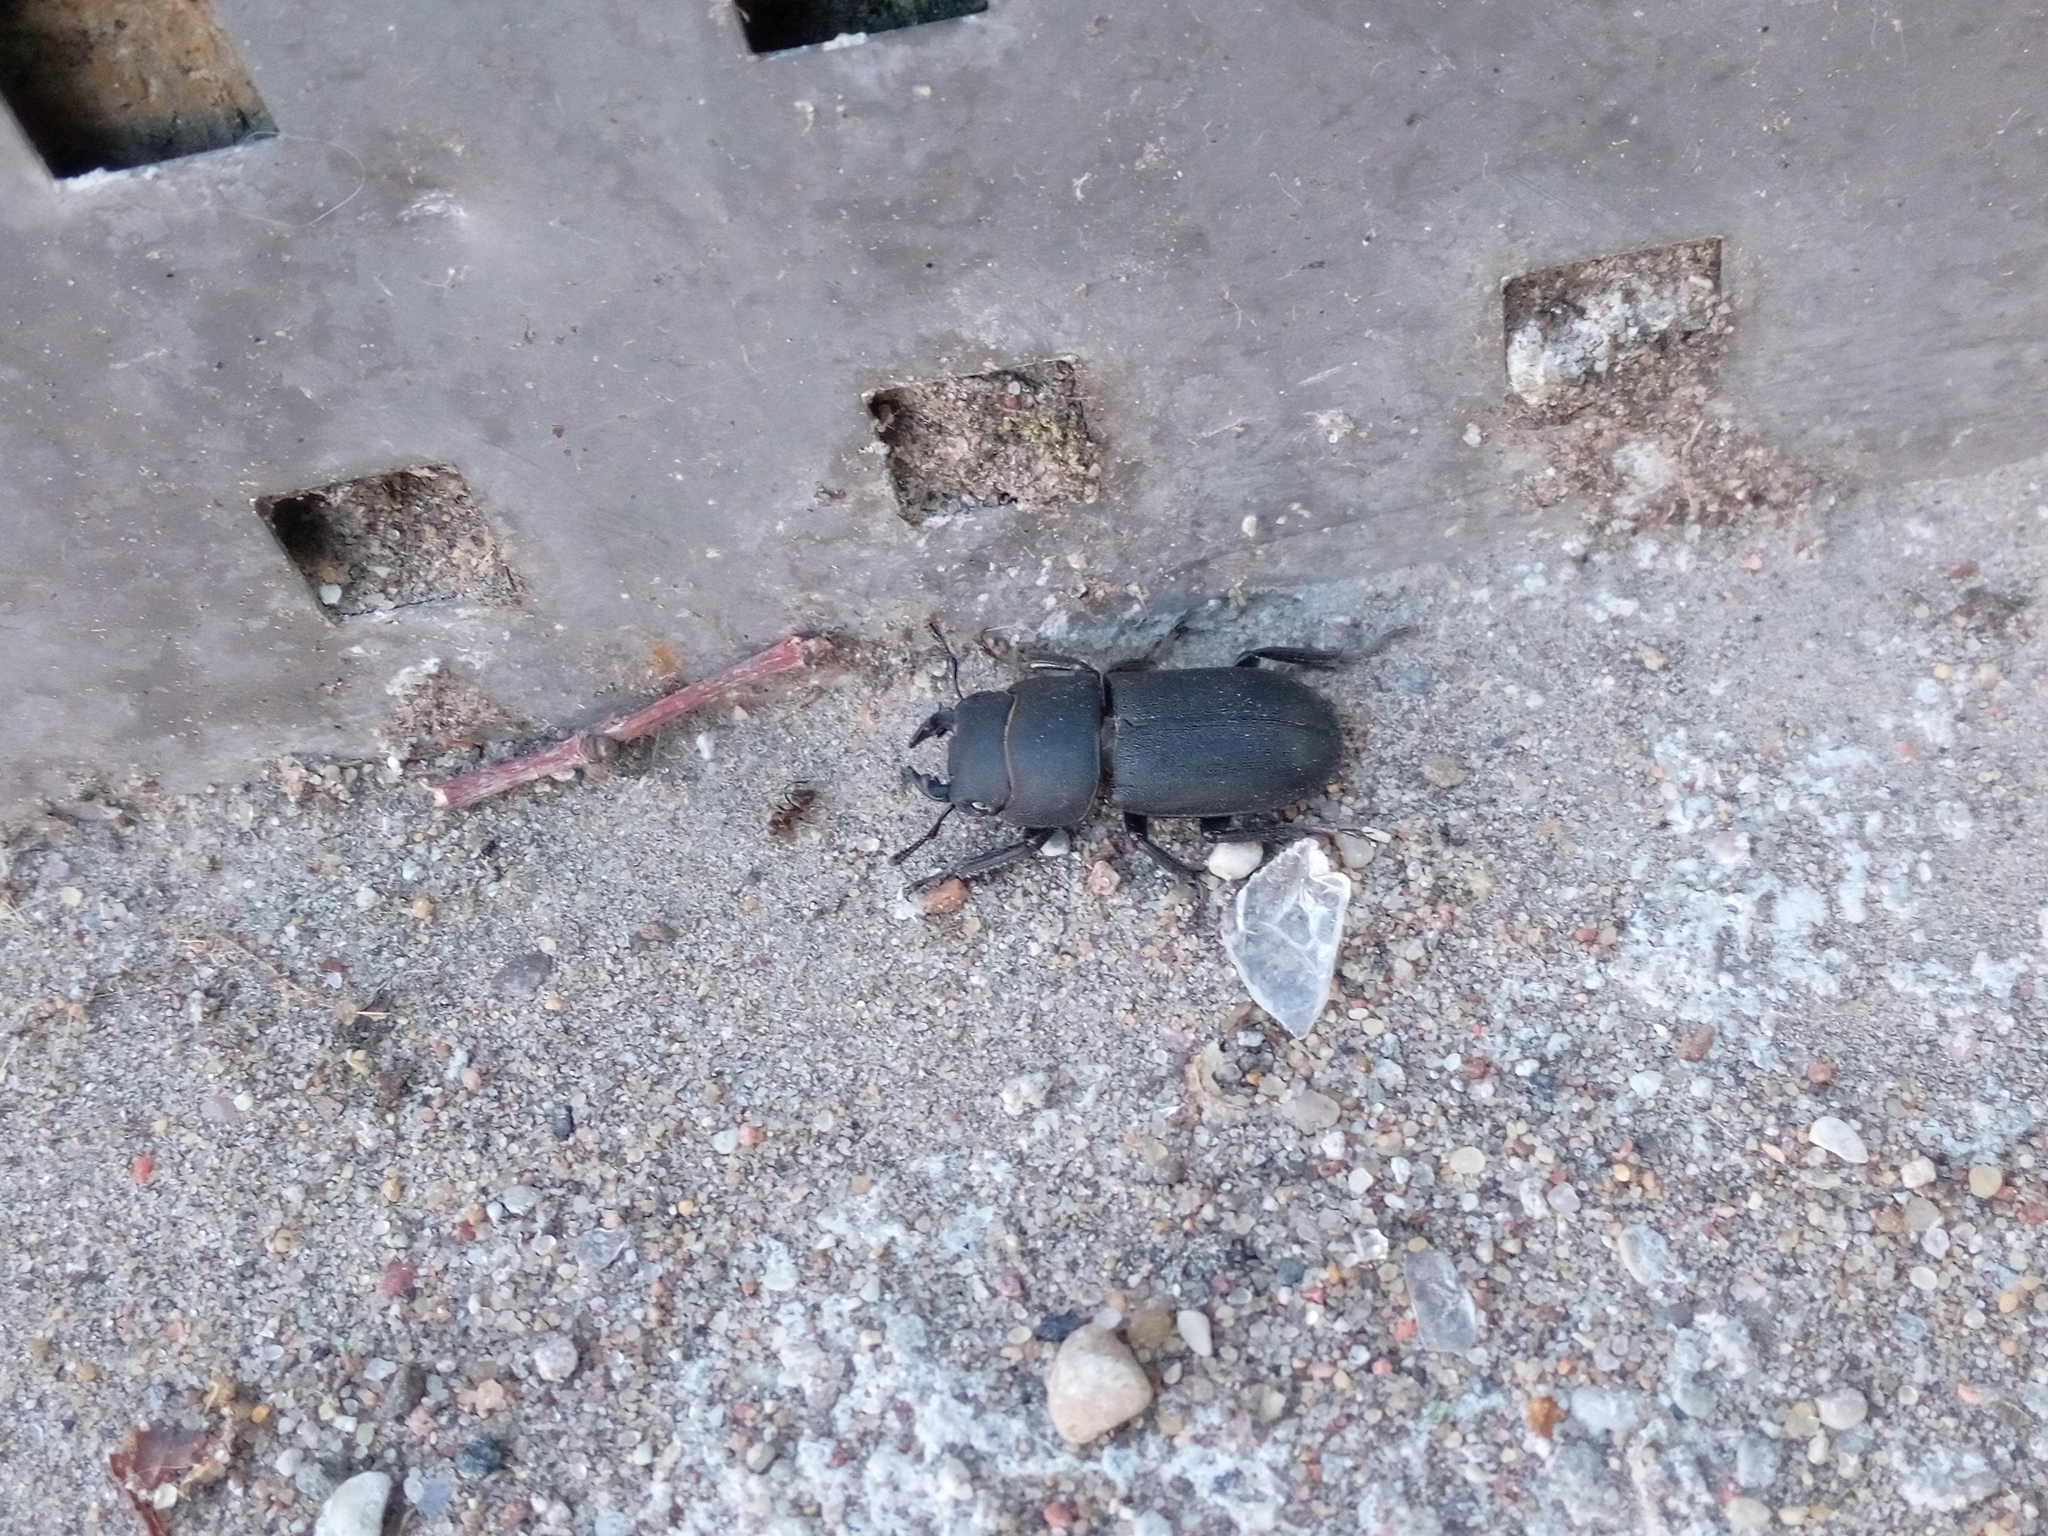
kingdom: Animalia
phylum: Arthropoda
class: Insecta
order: Coleoptera
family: Lucanidae
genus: Dorcus
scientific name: Dorcus parallelipipedus
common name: Lesser stag beetle
